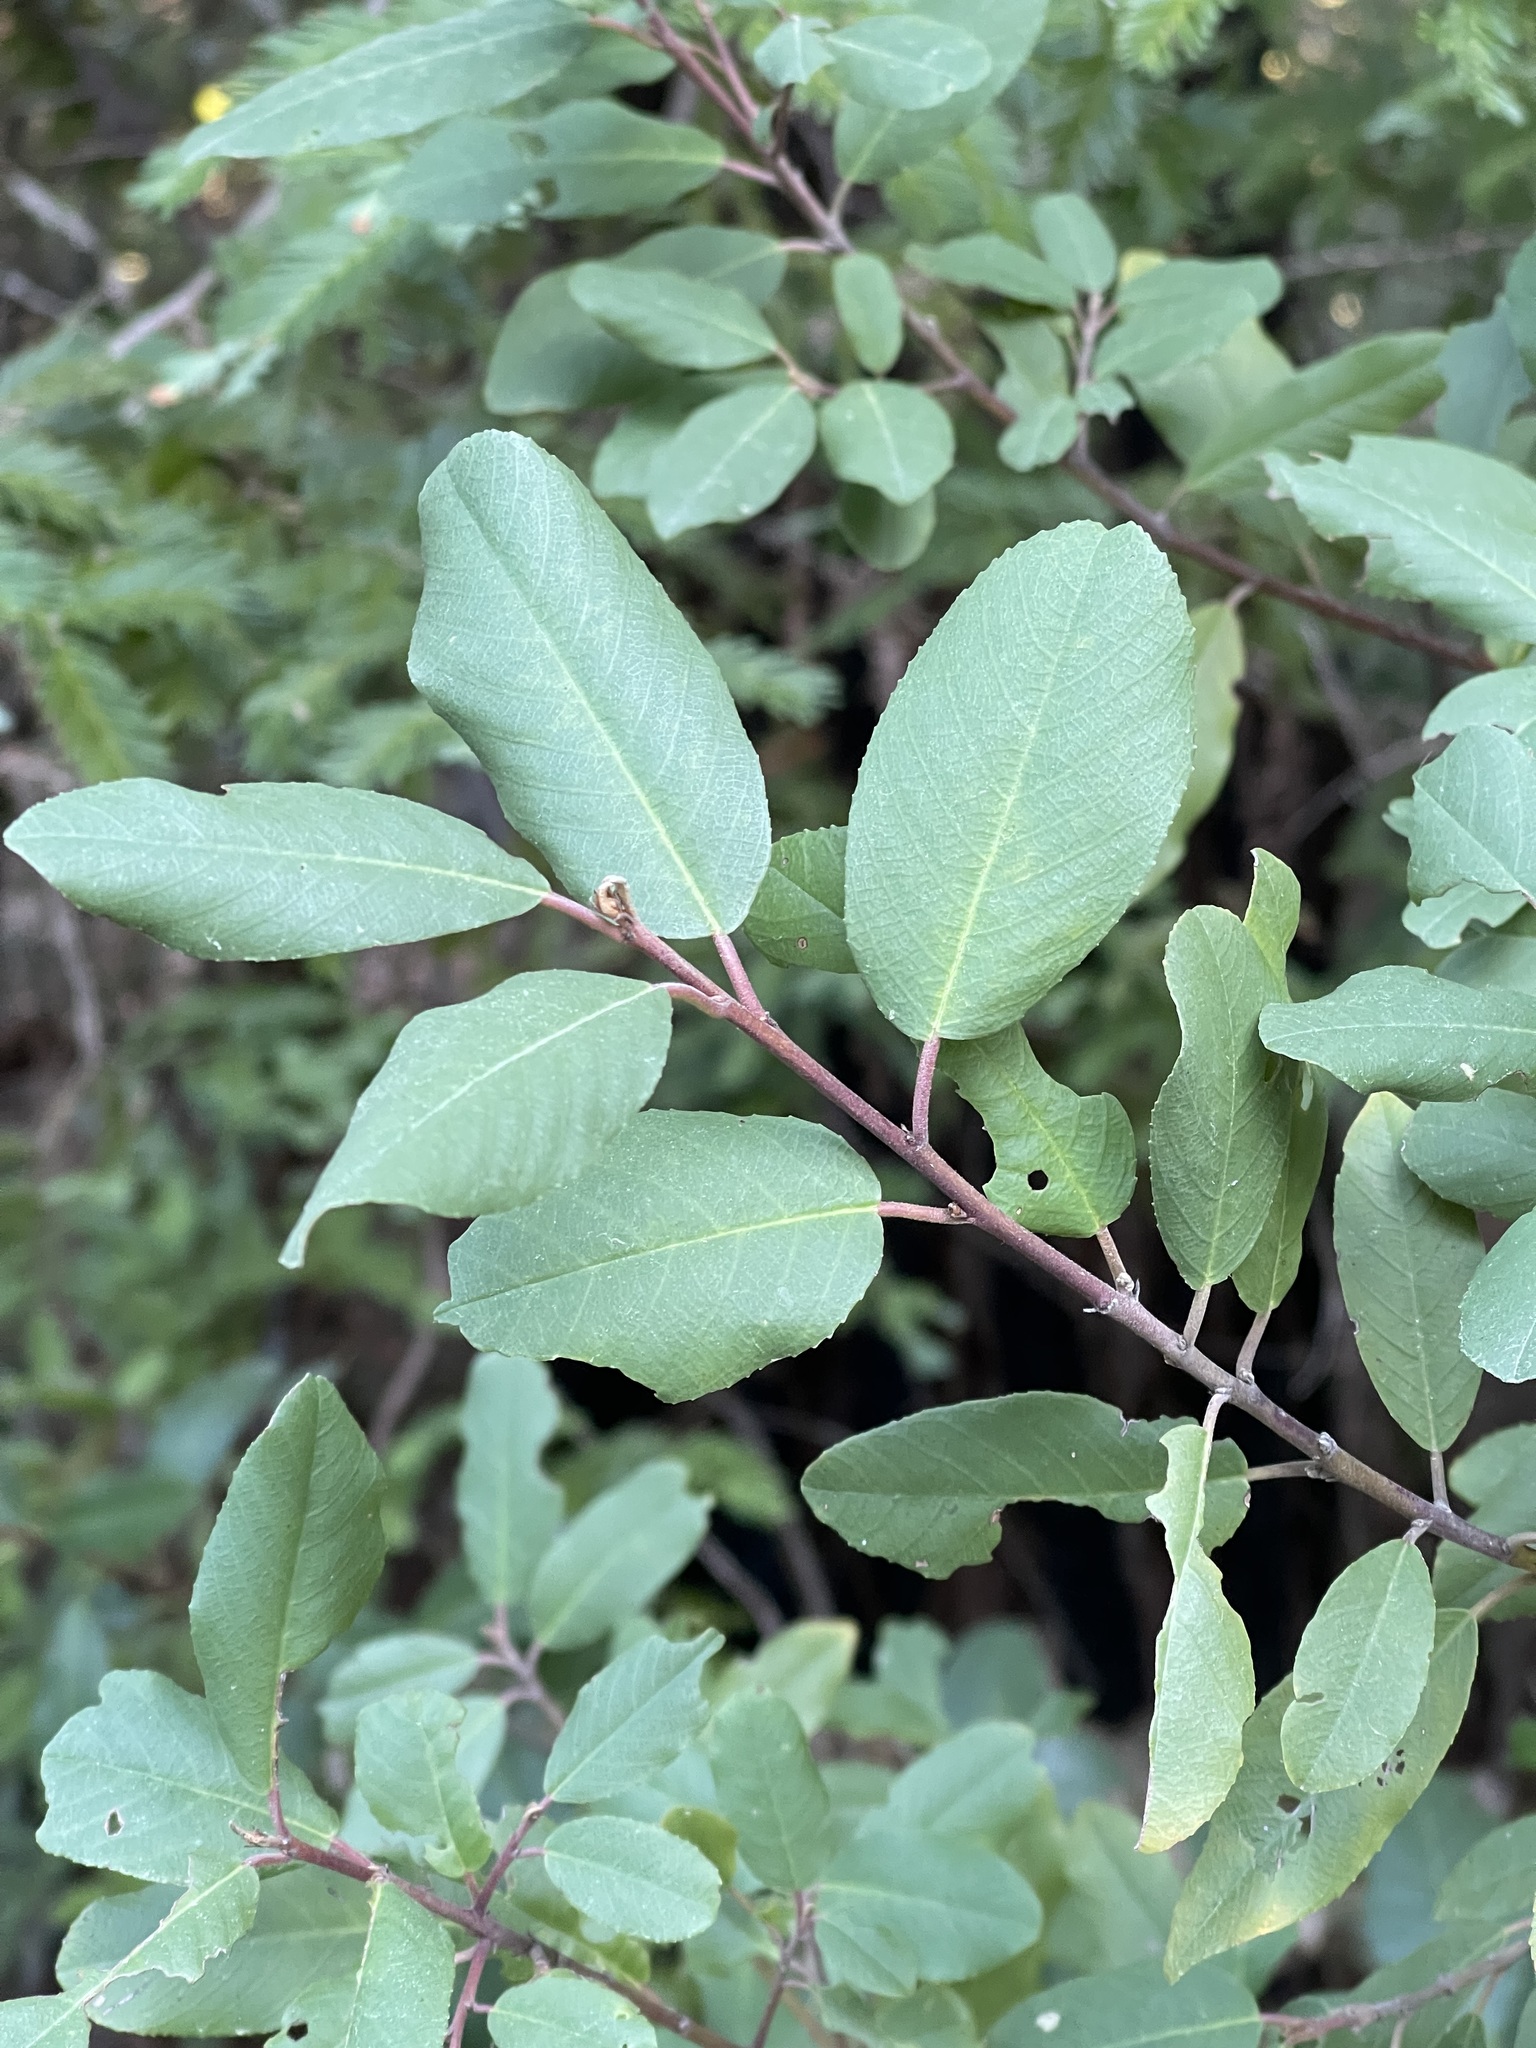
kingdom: Plantae
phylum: Tracheophyta
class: Magnoliopsida
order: Rosales
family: Rhamnaceae
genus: Frangula
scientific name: Frangula californica
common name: California buckthorn
